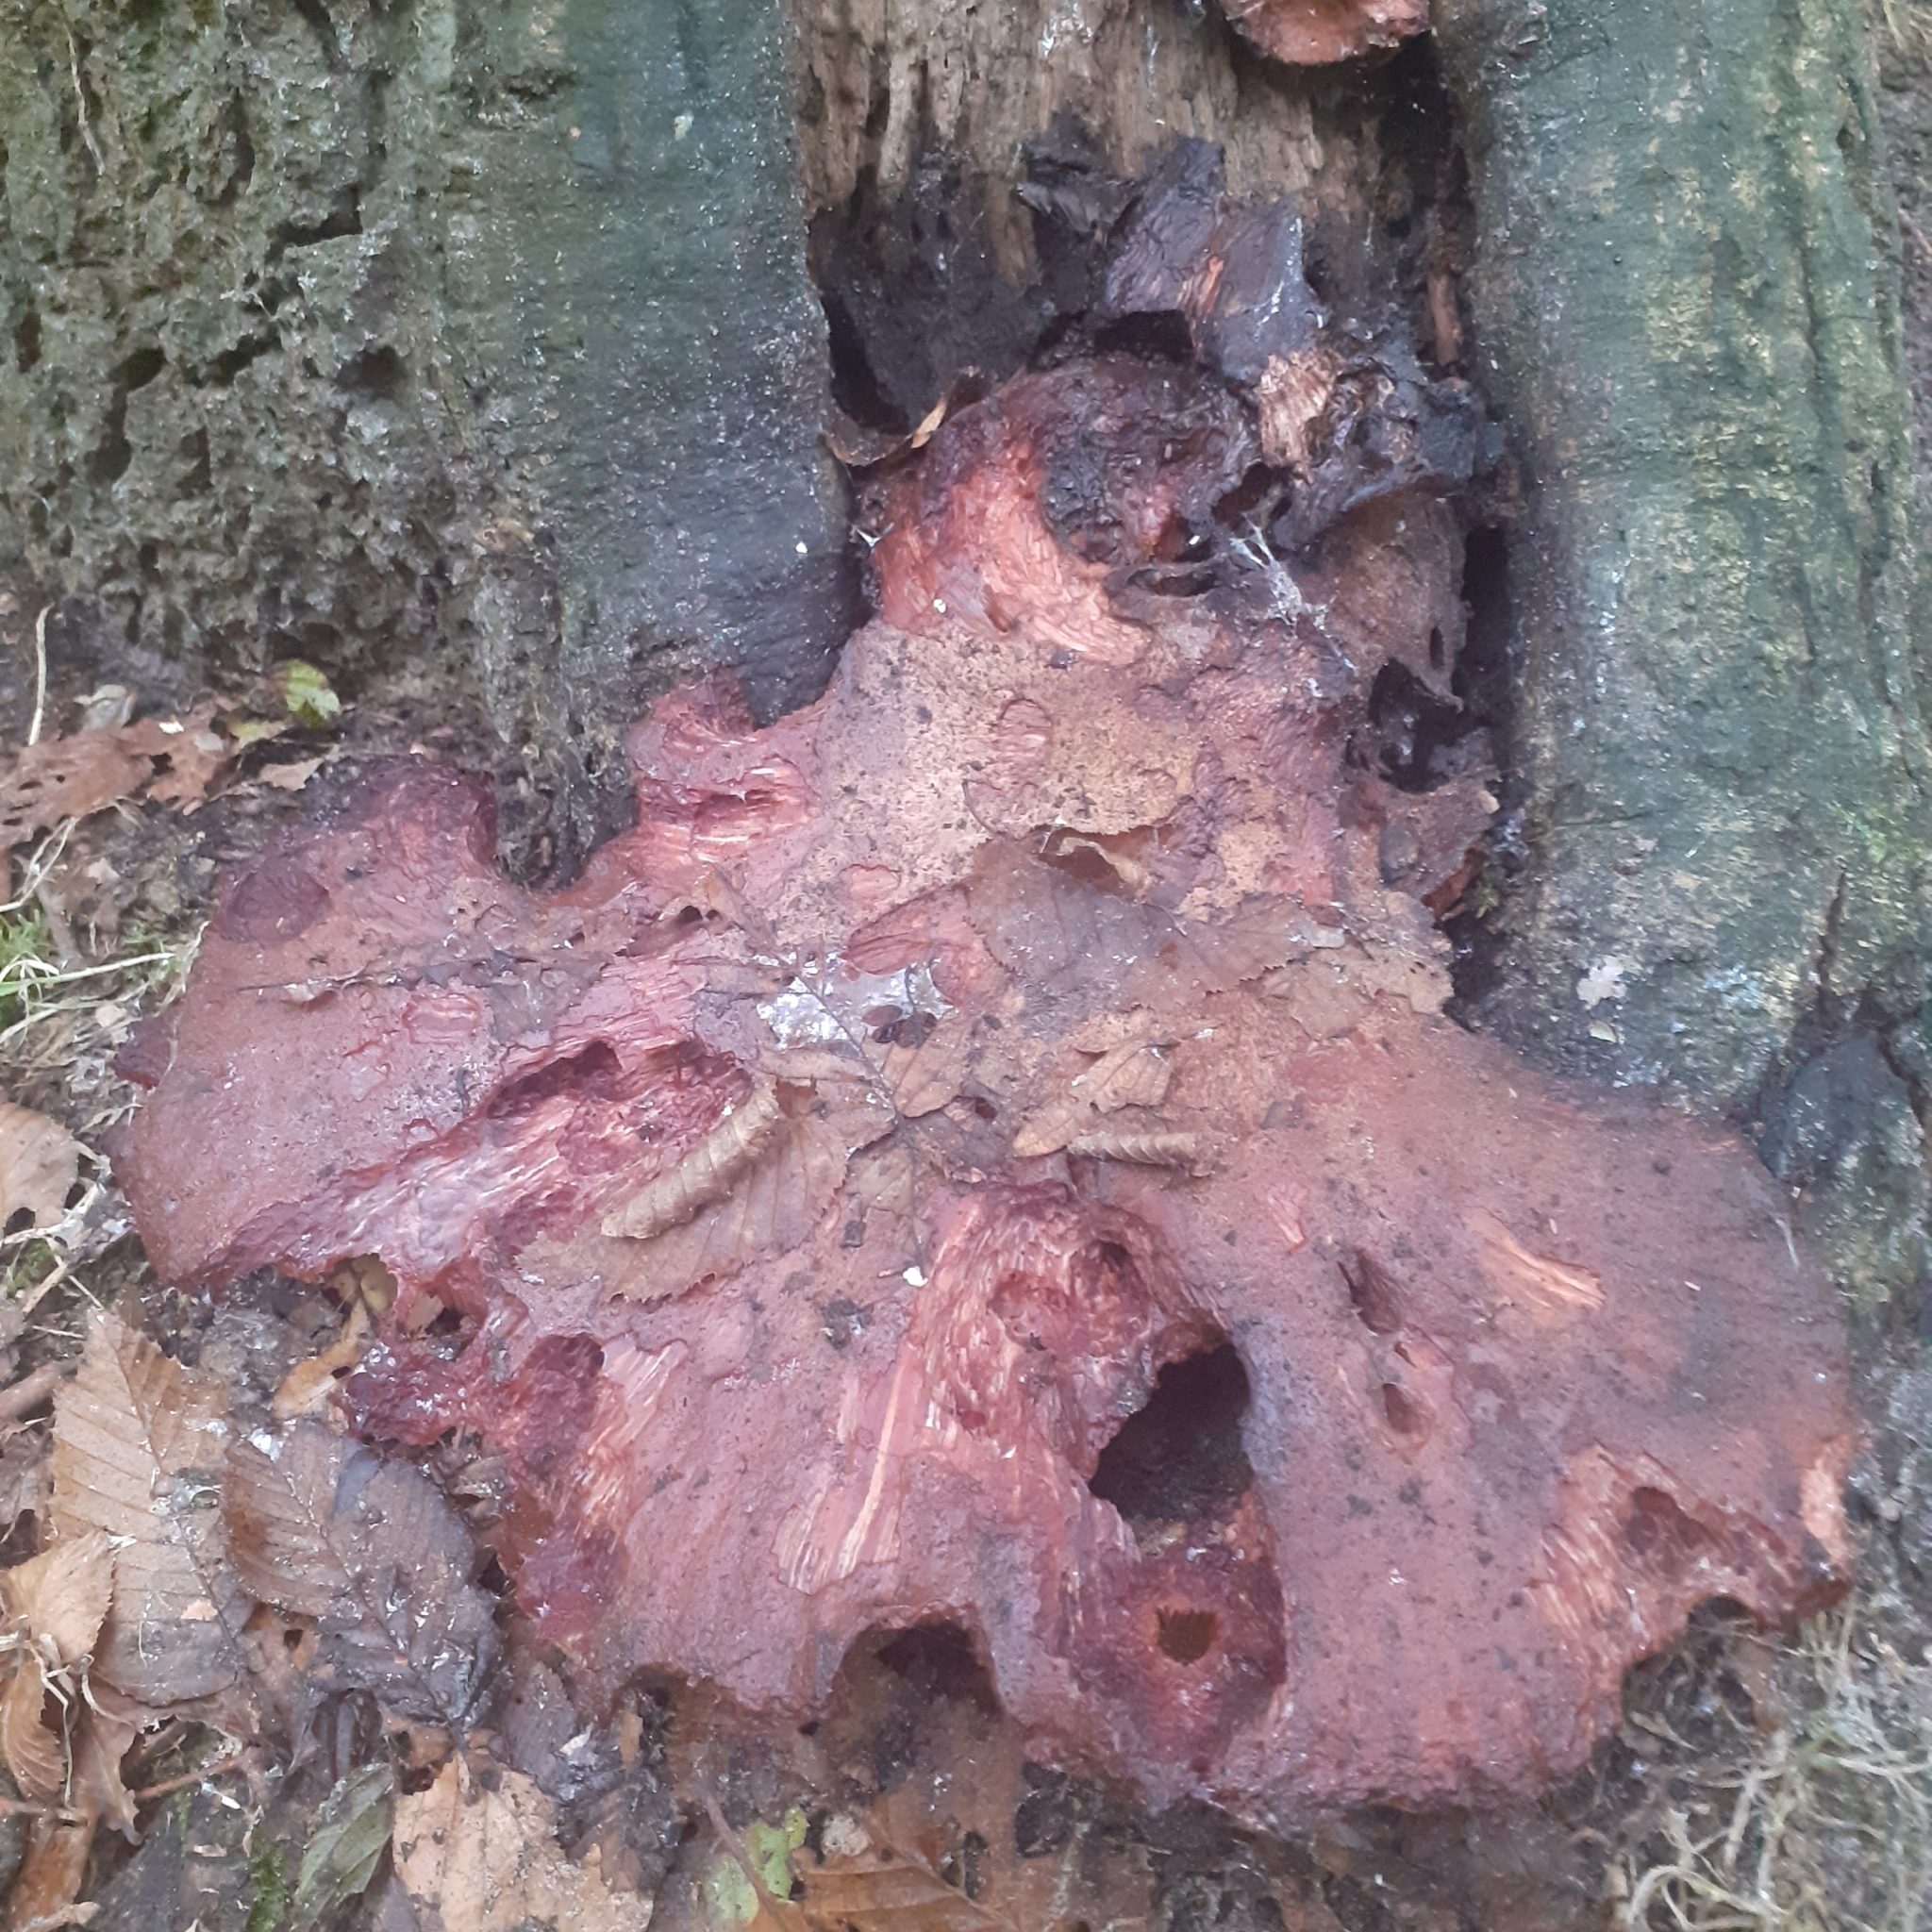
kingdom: Fungi
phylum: Basidiomycota
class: Agaricomycetes
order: Agaricales
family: Fistulinaceae
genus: Fistulina
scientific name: Fistulina hepatica
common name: Beef-steak fungus
